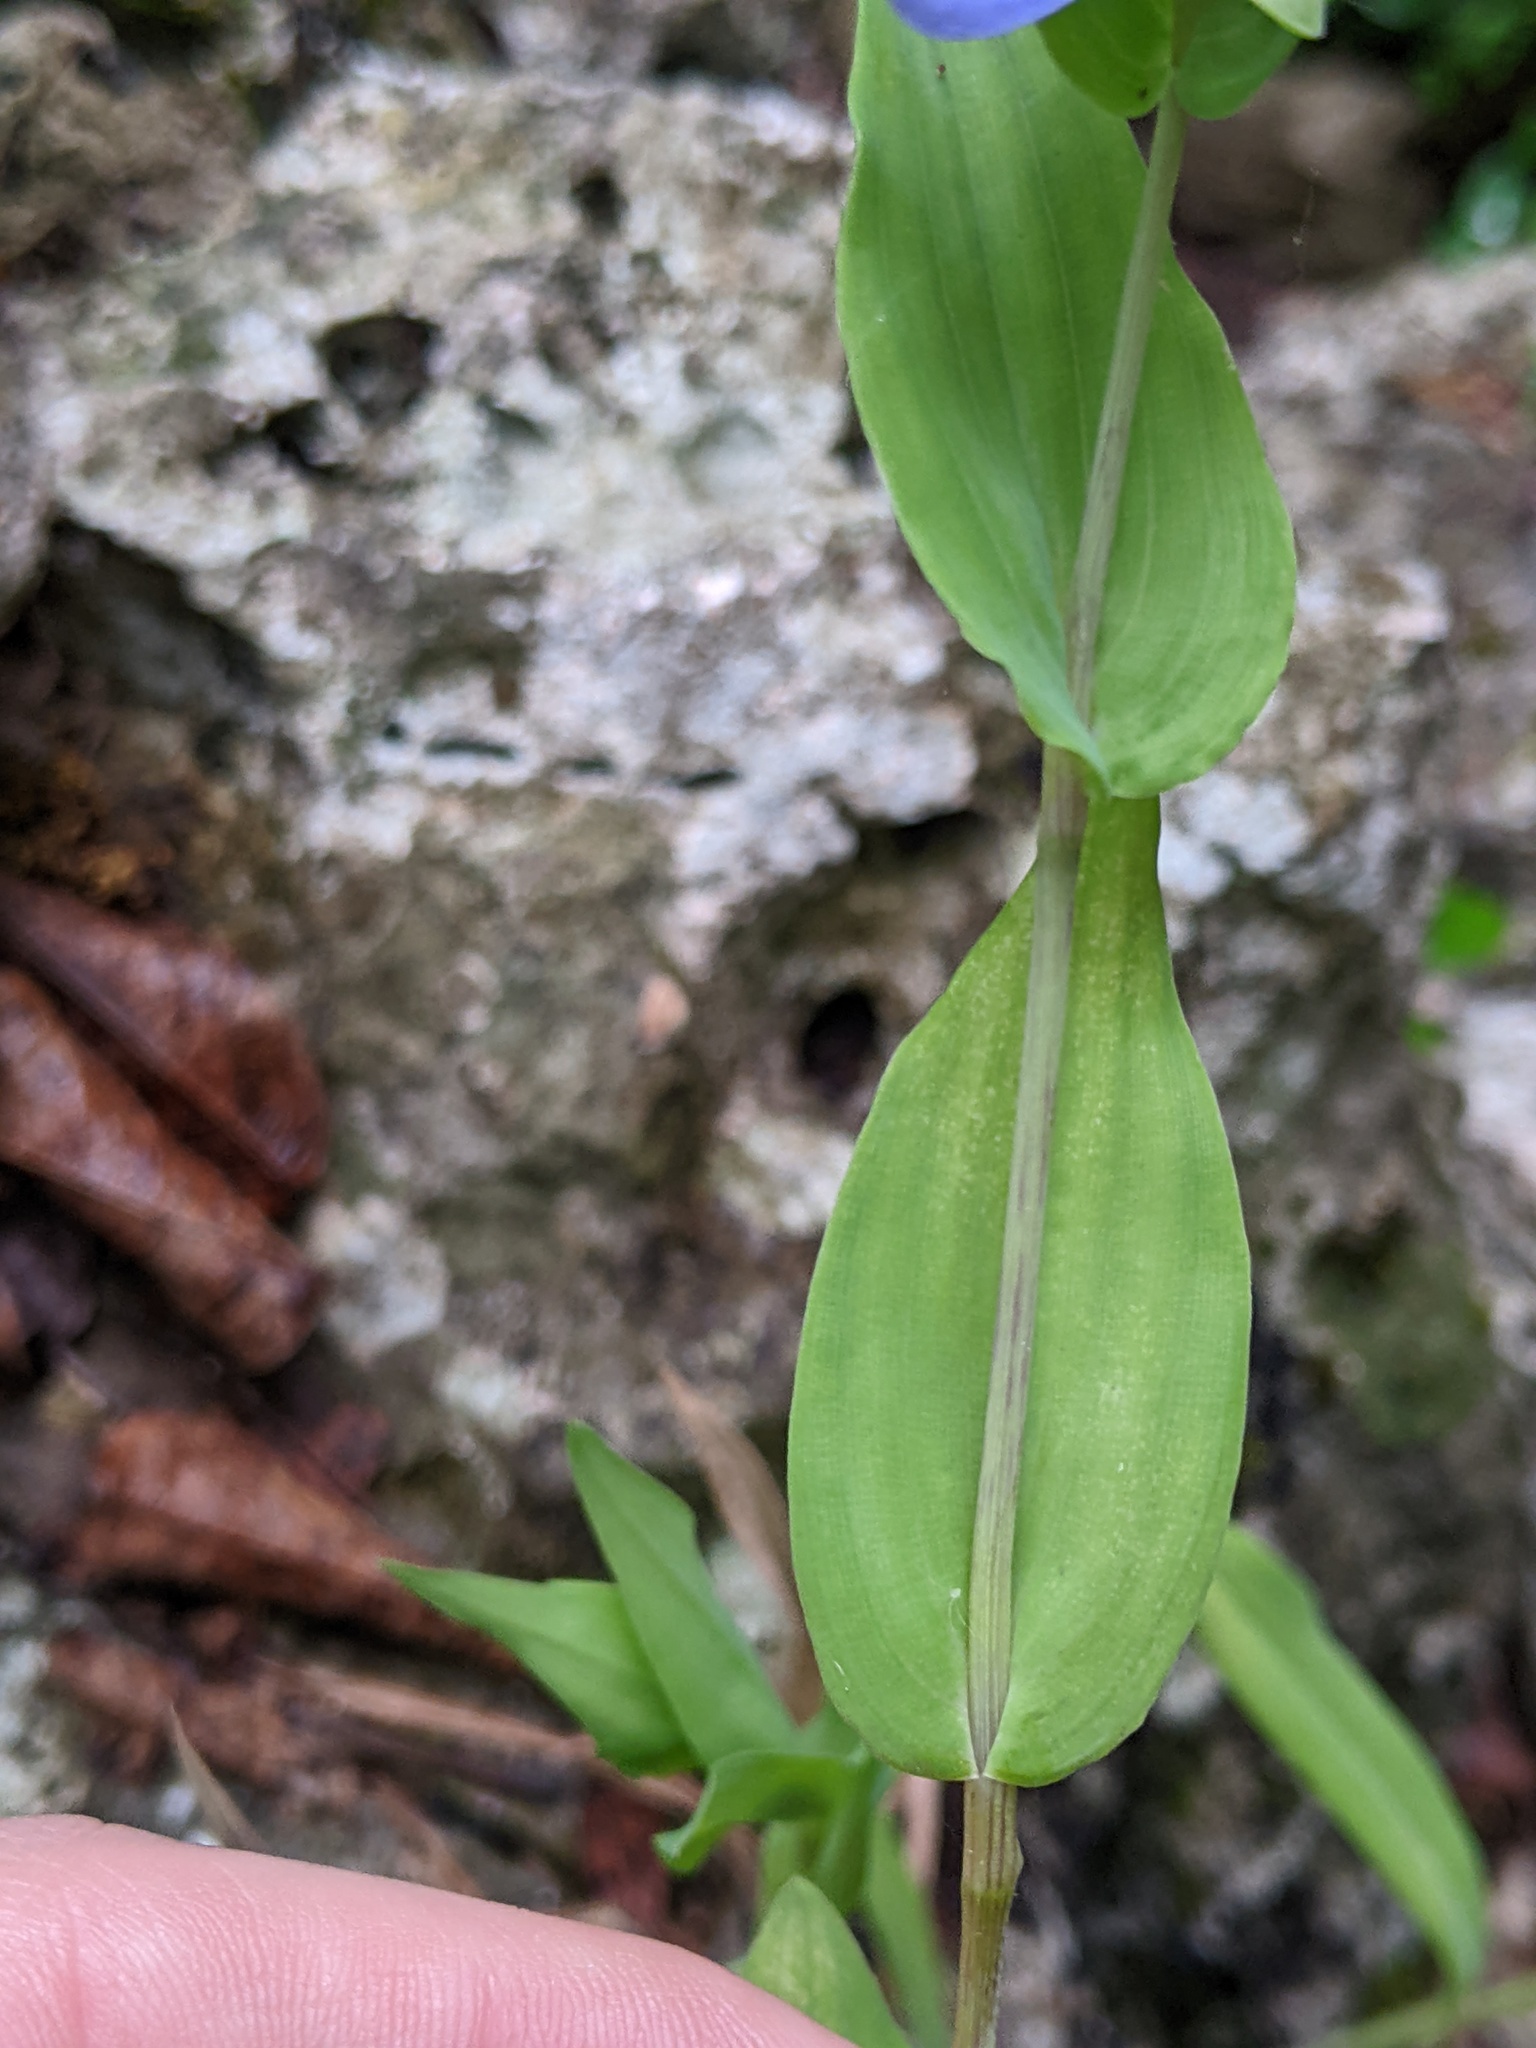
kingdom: Plantae
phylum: Tracheophyta
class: Liliopsida
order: Commelinales
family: Commelinaceae
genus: Tinantia
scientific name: Tinantia anomala
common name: False dayflower
